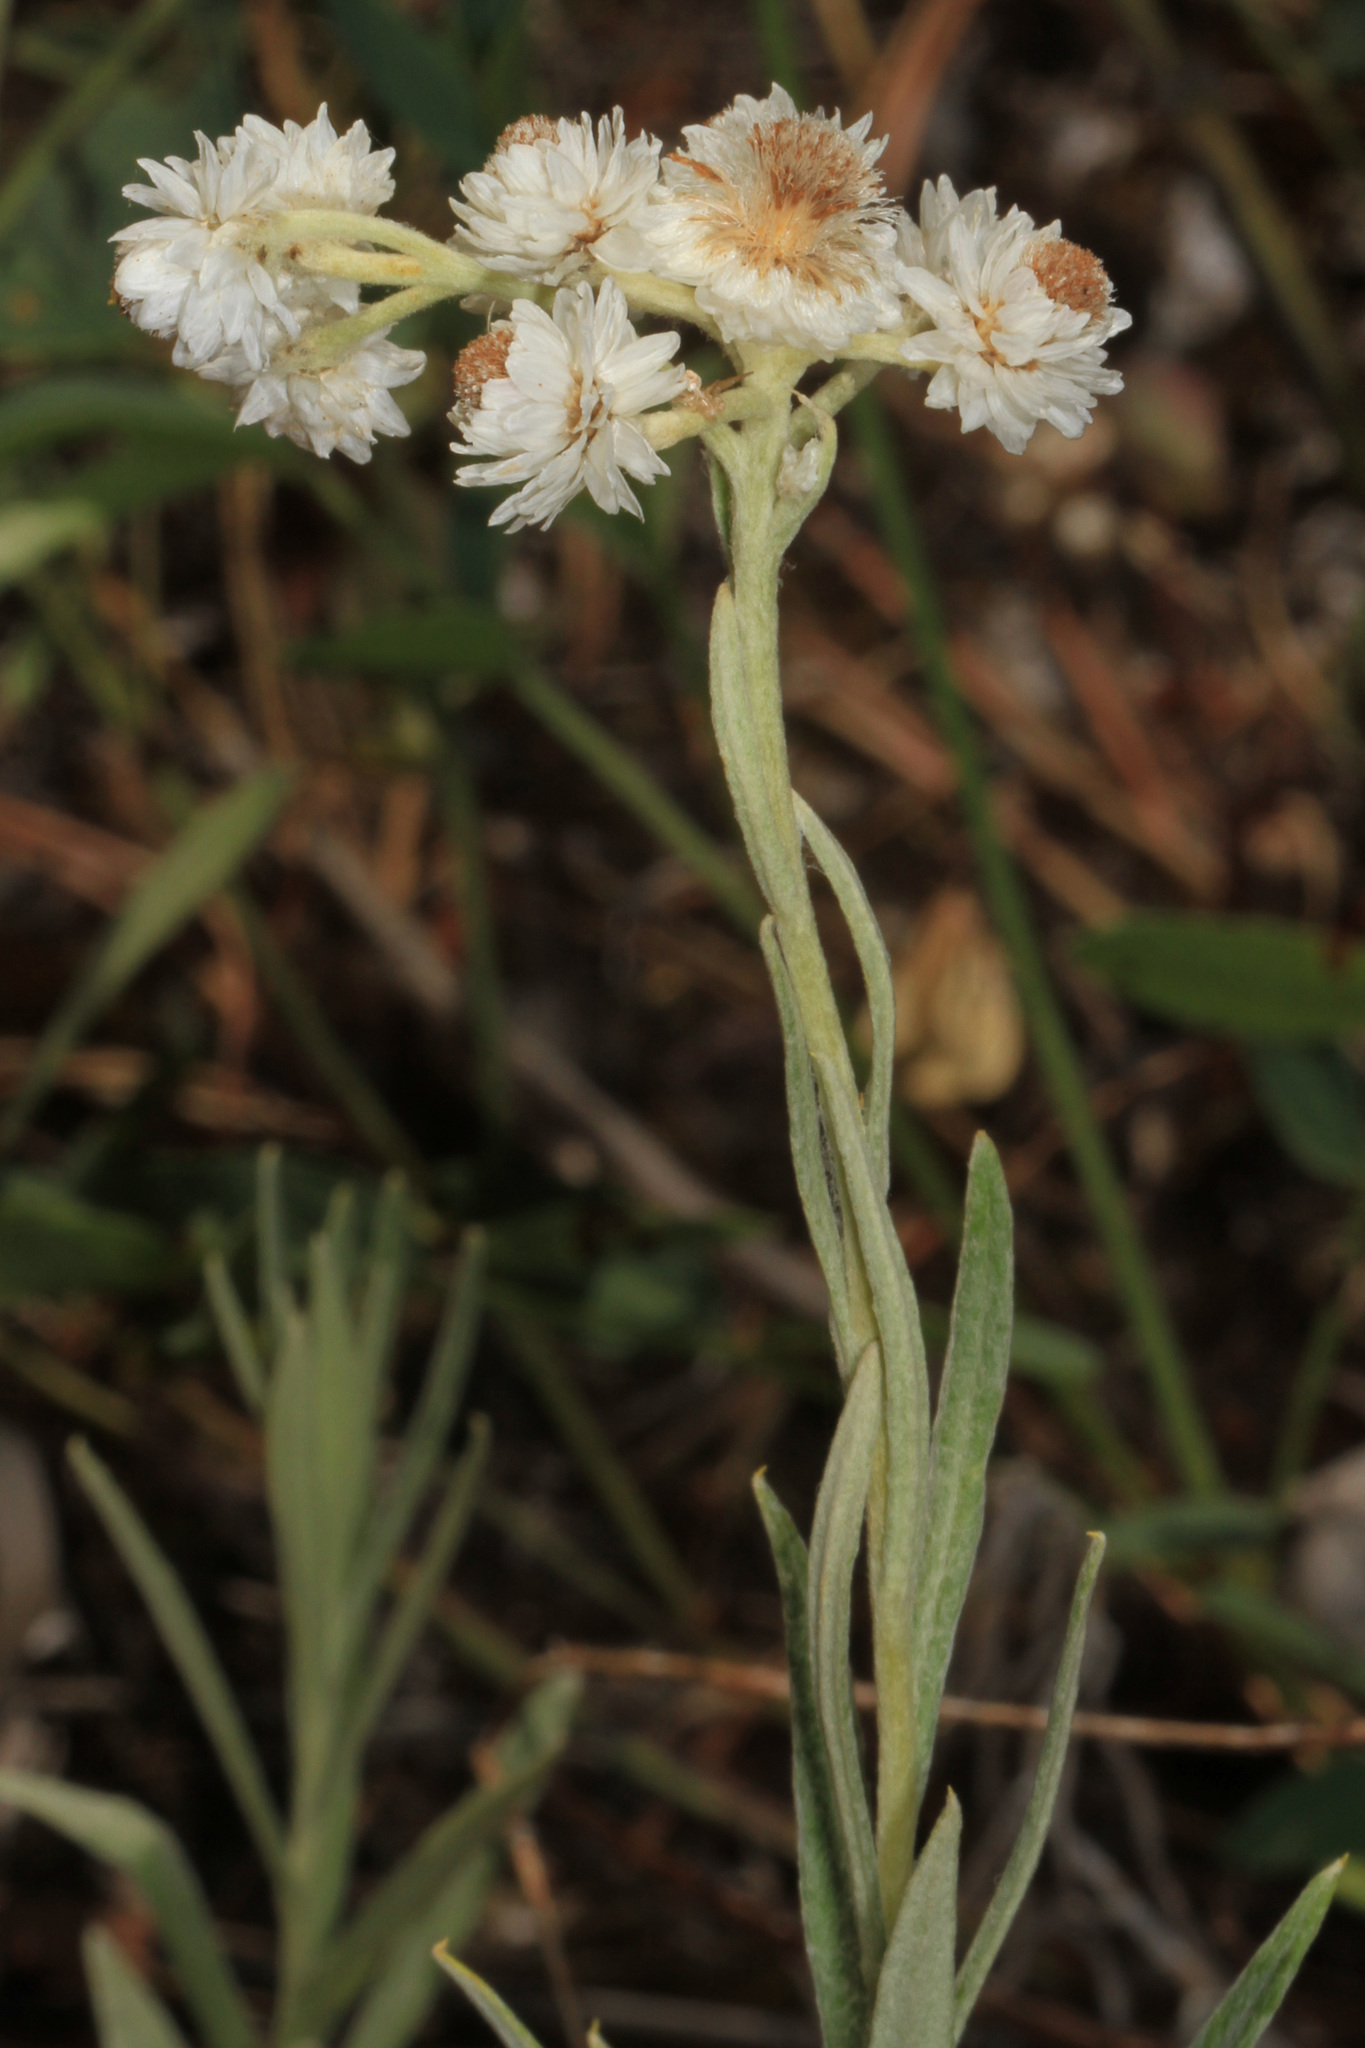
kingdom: Plantae
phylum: Tracheophyta
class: Magnoliopsida
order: Asterales
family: Asteraceae
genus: Anaphalis
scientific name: Anaphalis margaritacea
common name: Pearly everlasting
